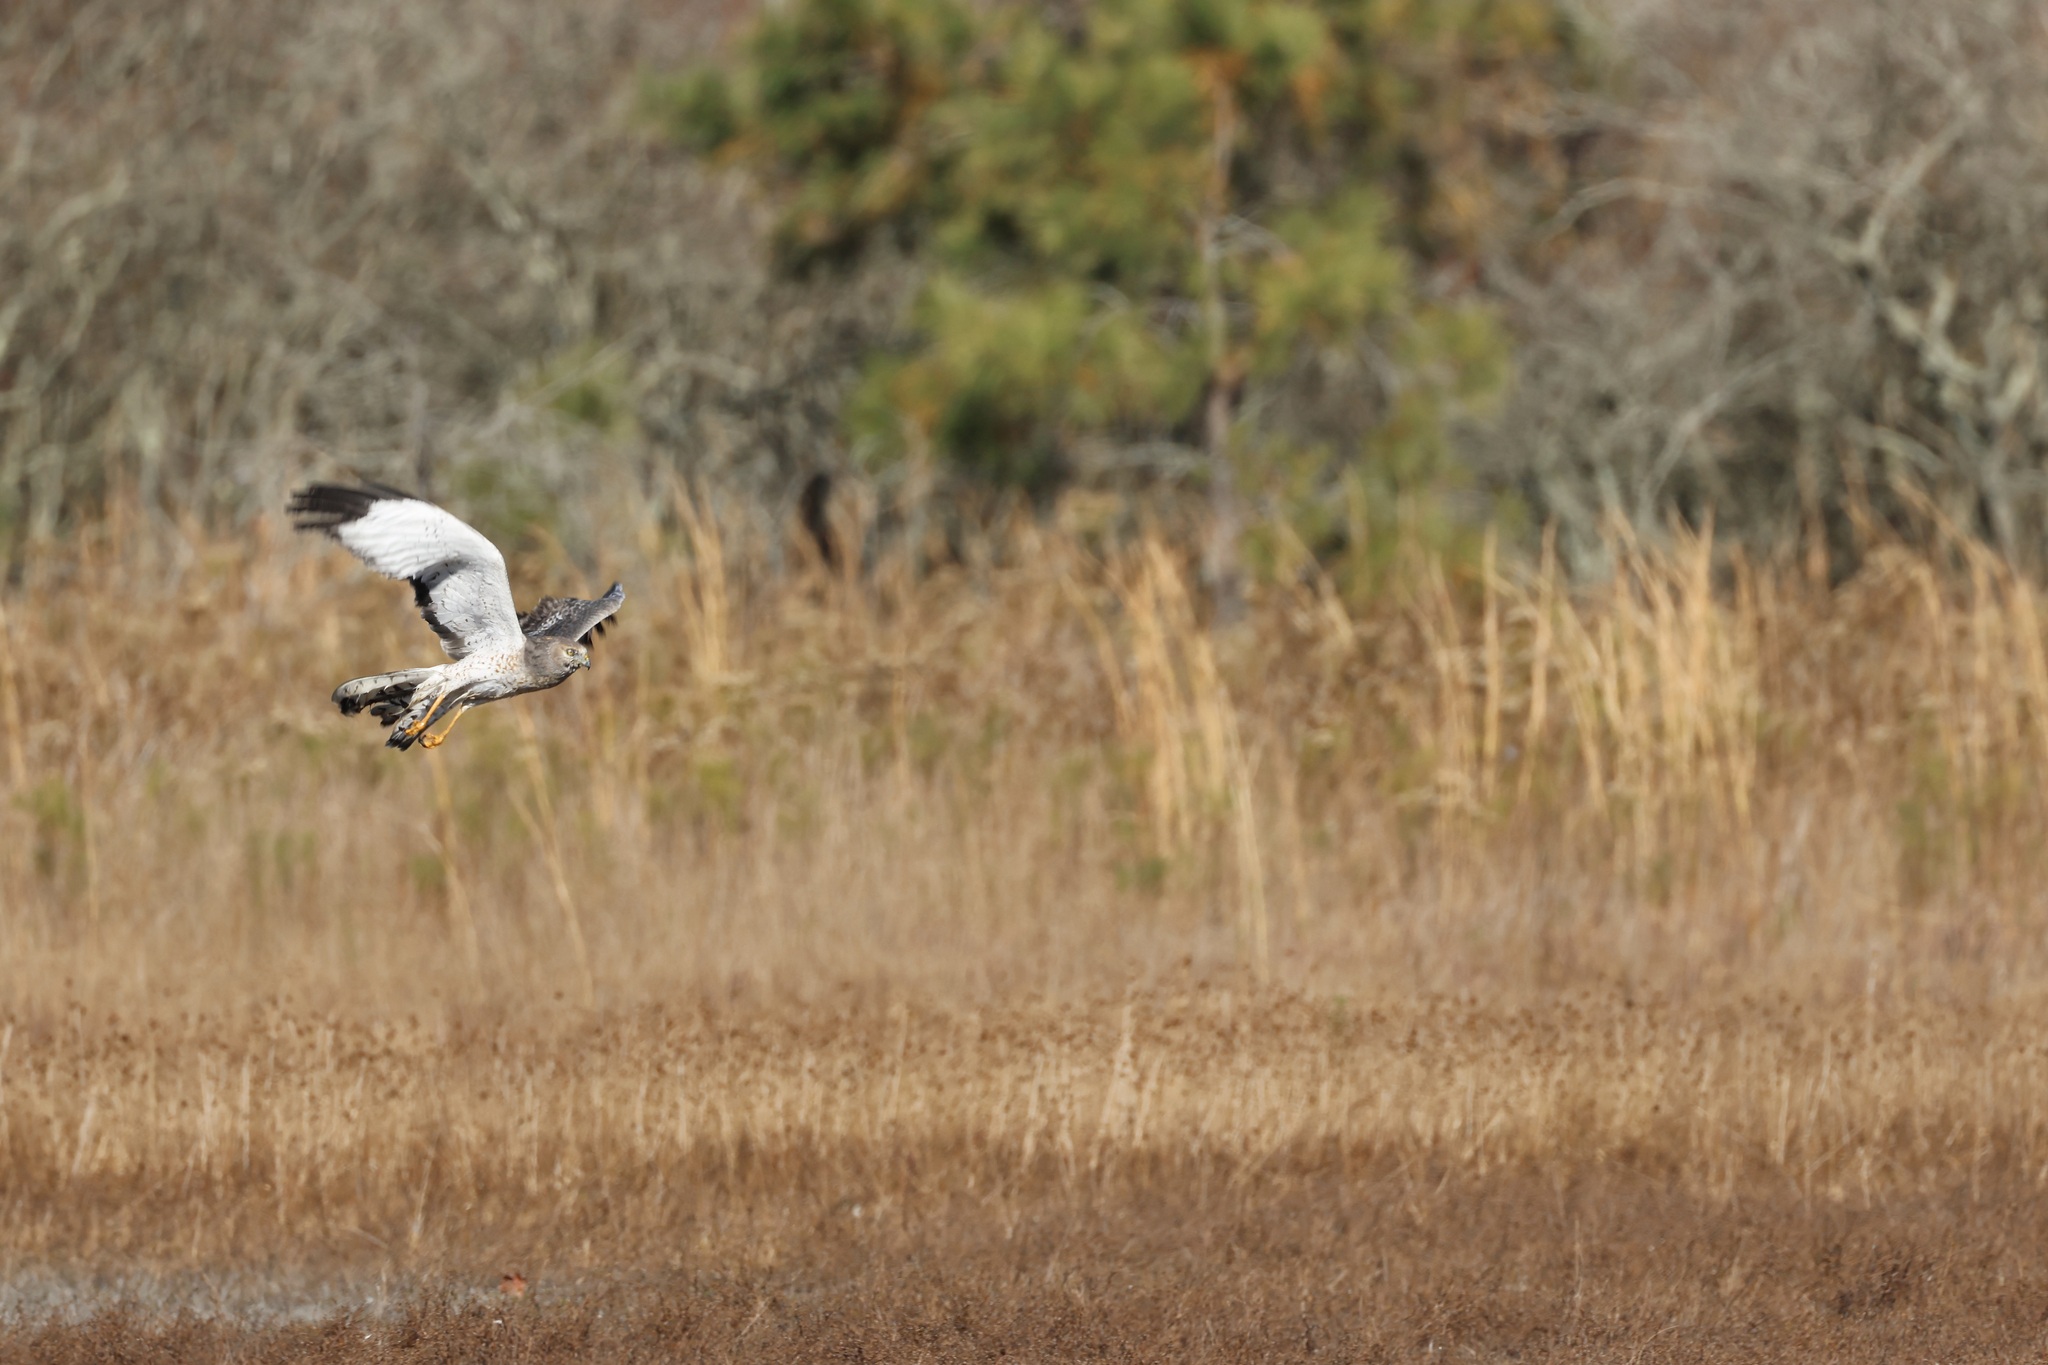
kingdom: Animalia
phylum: Chordata
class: Aves
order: Accipitriformes
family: Accipitridae
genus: Circus
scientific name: Circus cyaneus
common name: Hen harrier
